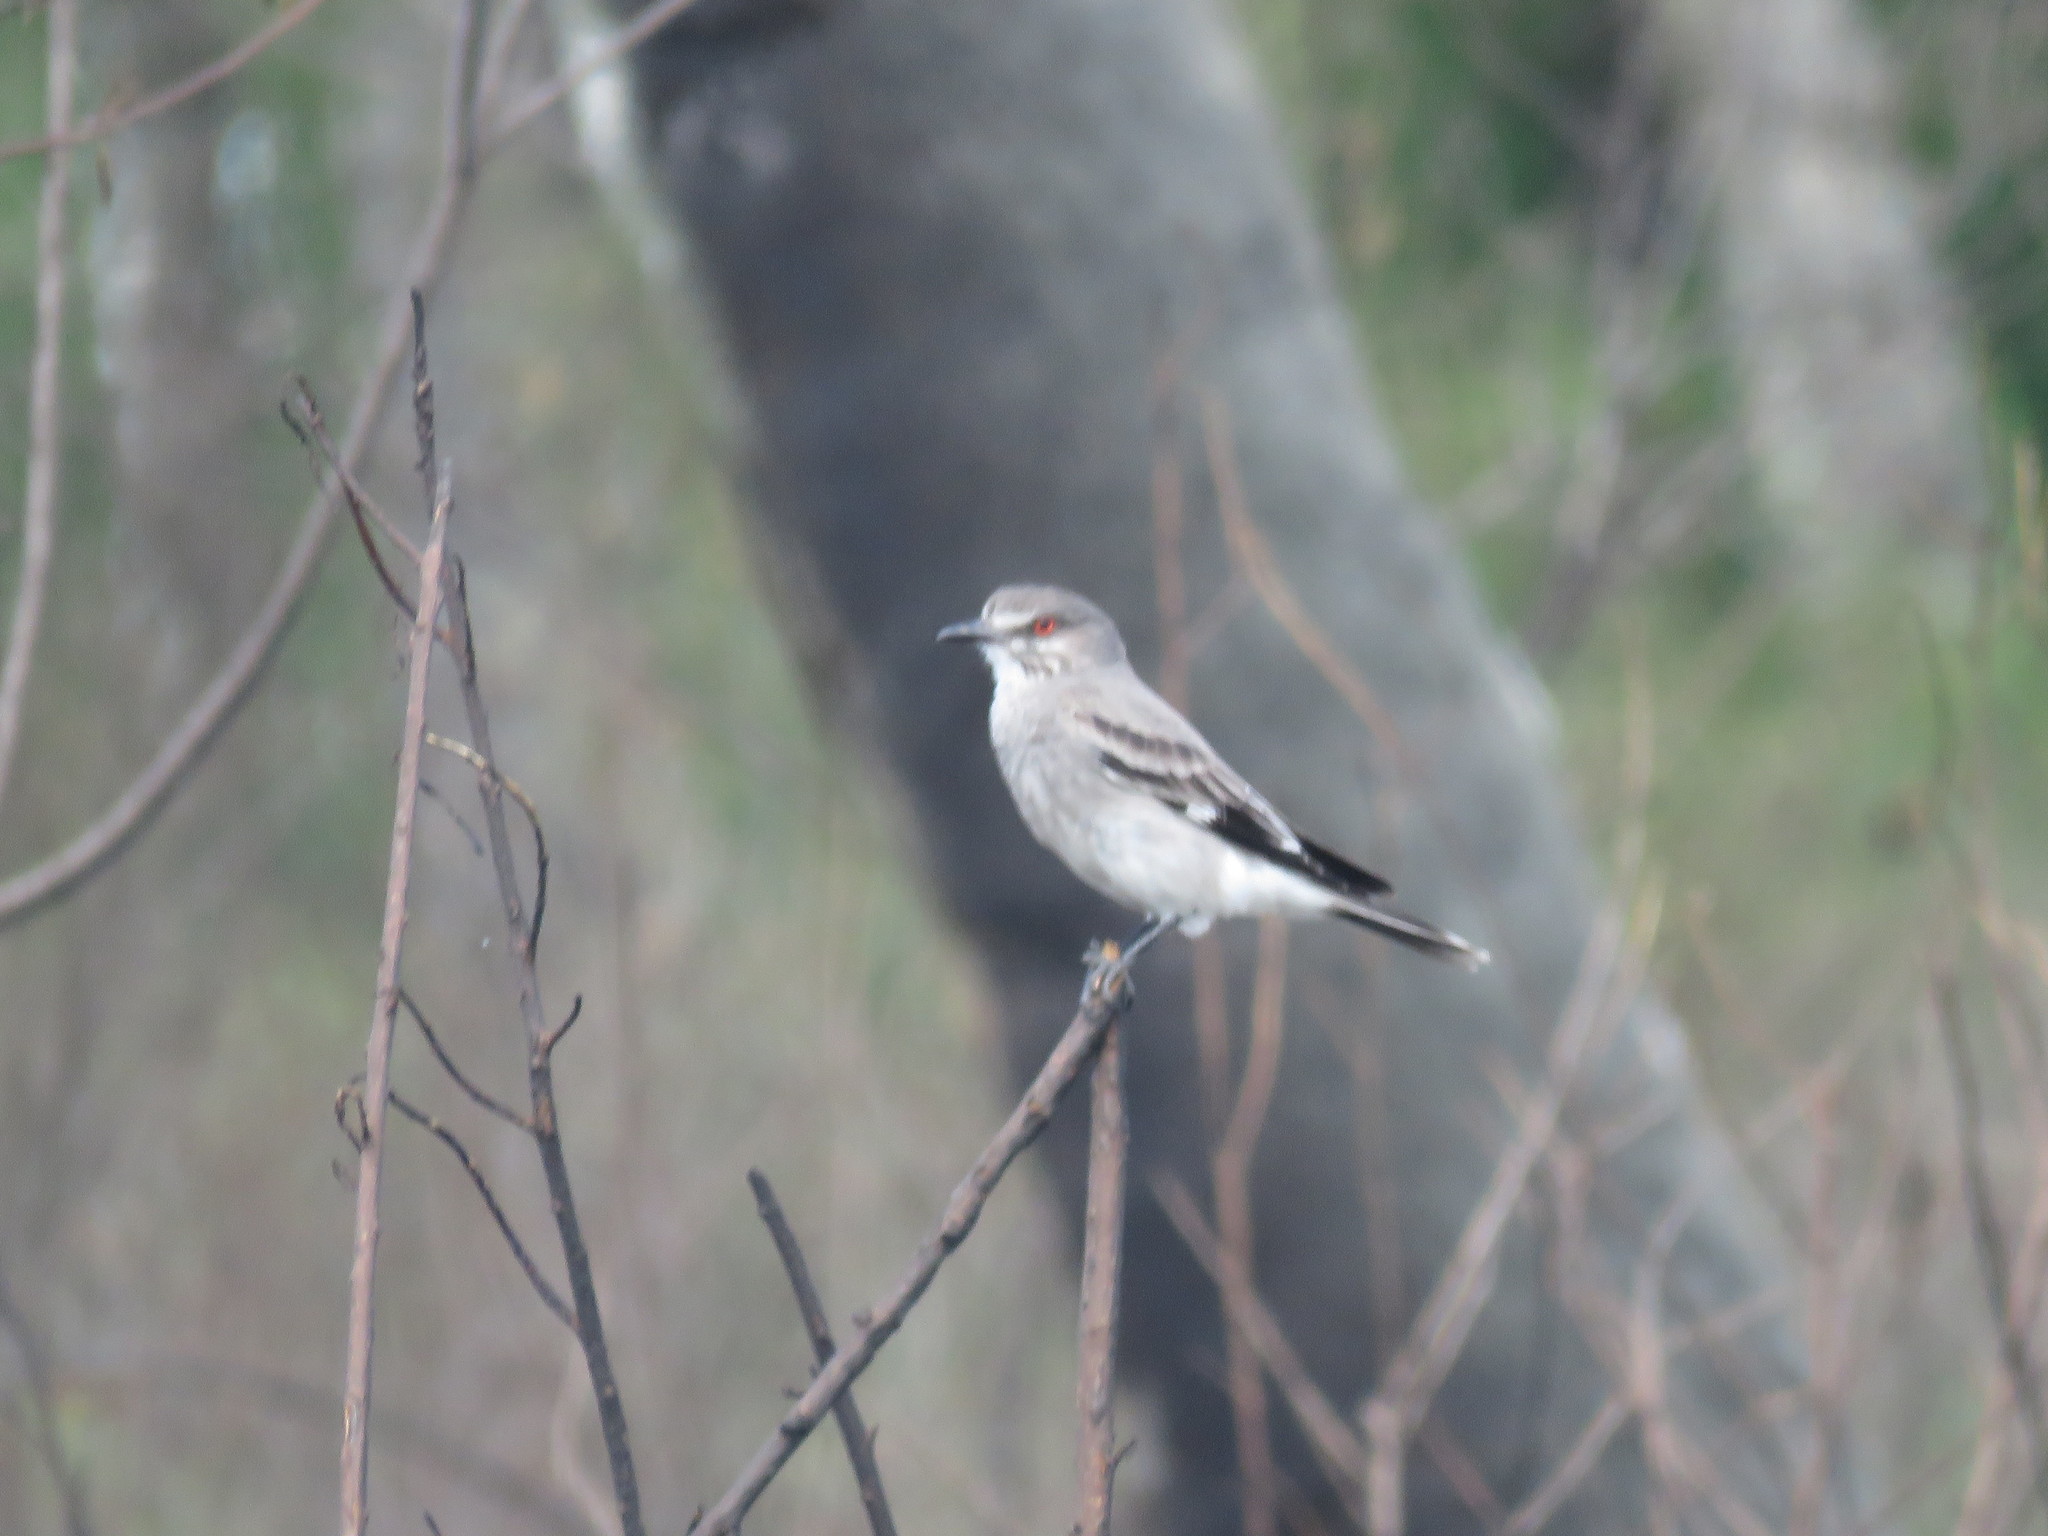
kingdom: Animalia
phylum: Chordata
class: Aves
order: Passeriformes
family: Tyrannidae
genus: Xolmis
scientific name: Xolmis cinereus
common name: Grey monjita
